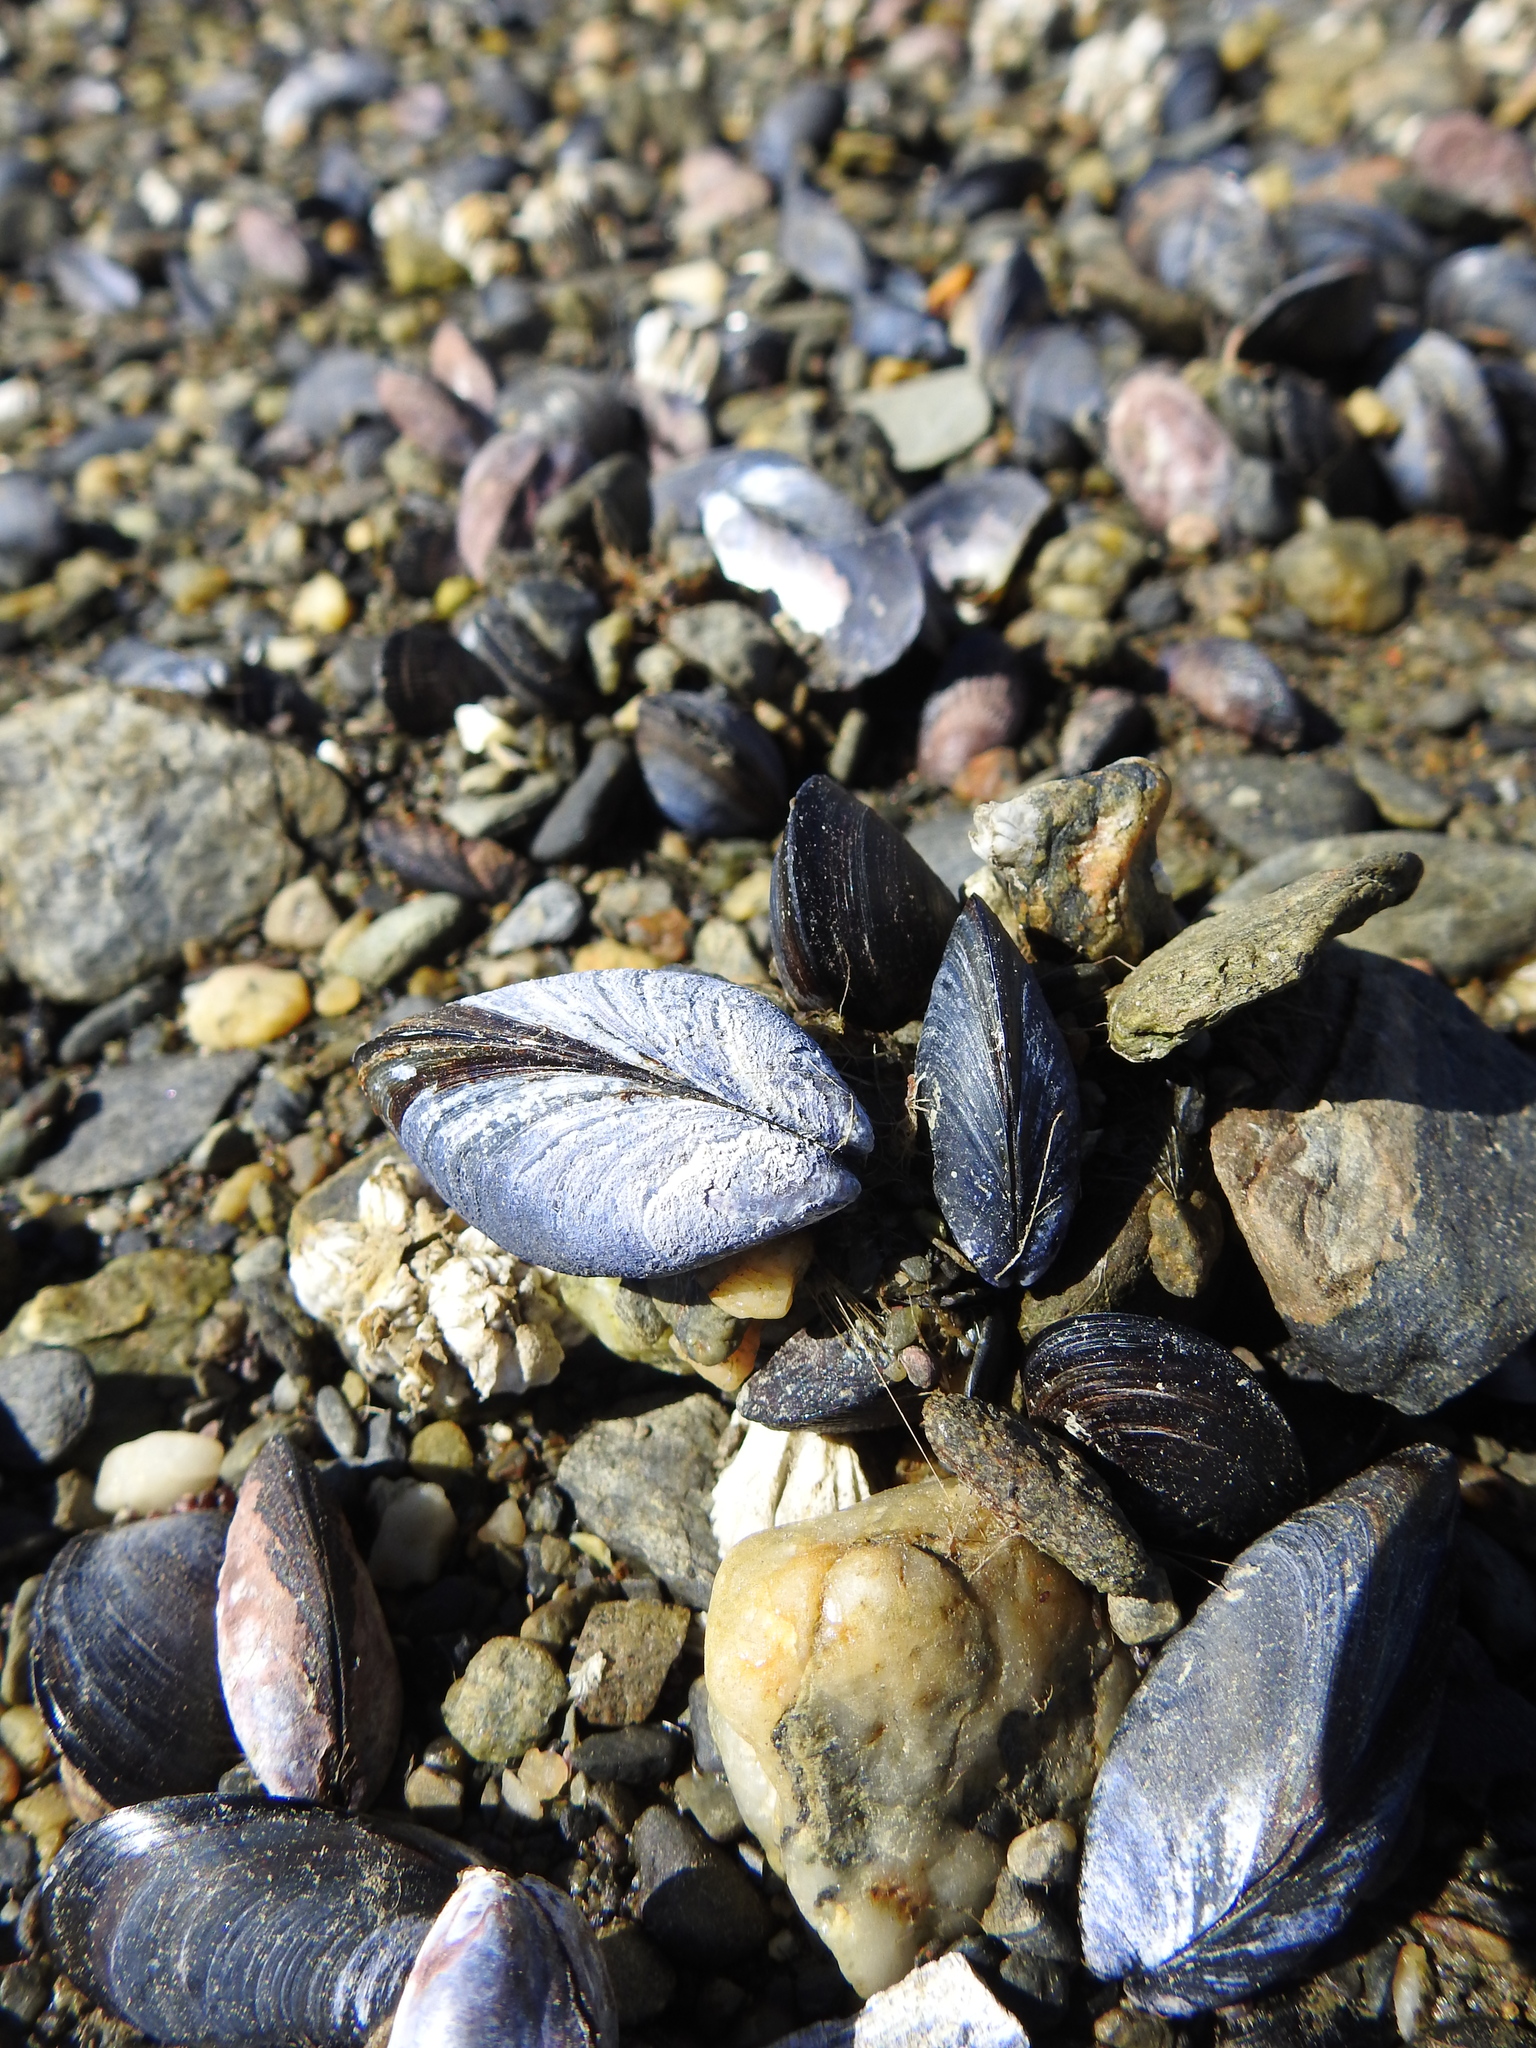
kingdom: Animalia
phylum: Mollusca
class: Bivalvia
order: Mytilida
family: Mytilidae
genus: Mytilus
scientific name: Mytilus chilensis
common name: Chilean mussel
